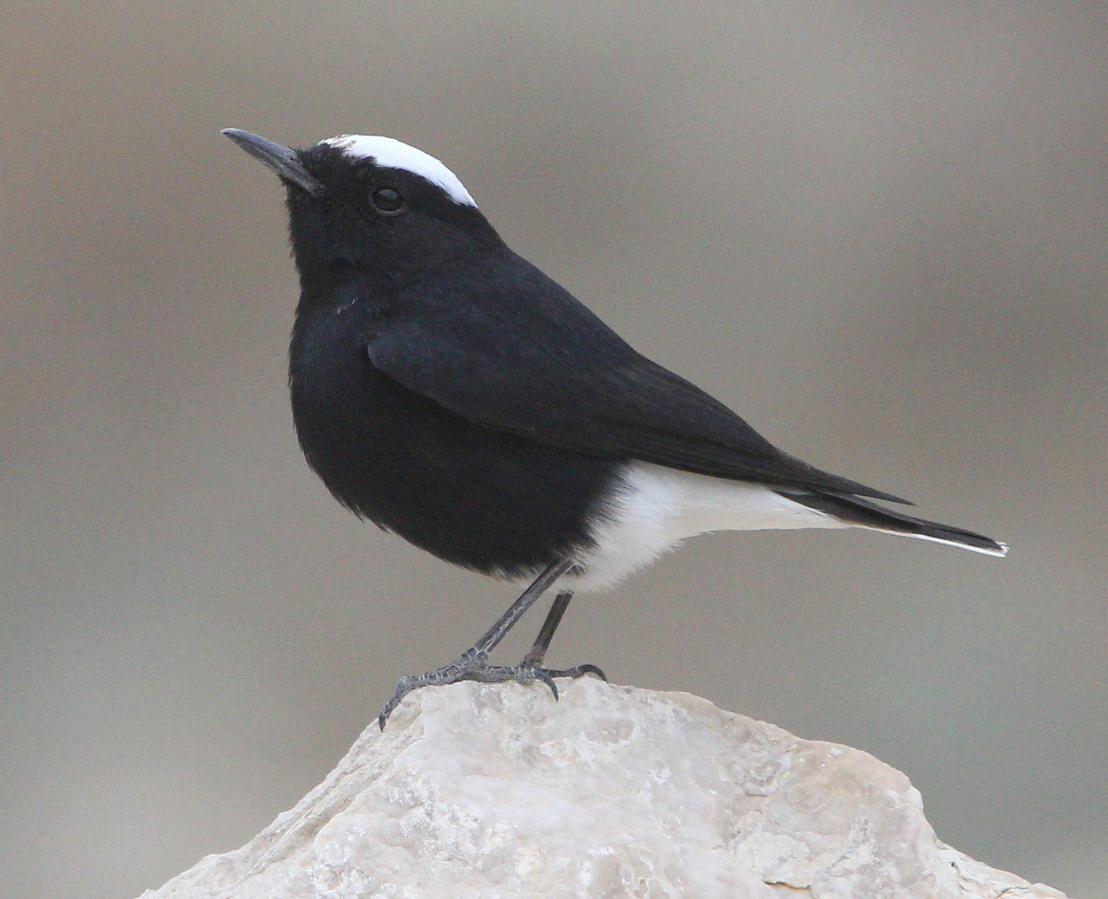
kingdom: Animalia
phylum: Chordata
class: Aves
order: Passeriformes
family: Muscicapidae
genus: Oenanthe
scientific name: Oenanthe leucopyga
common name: White-crowned wheatear
